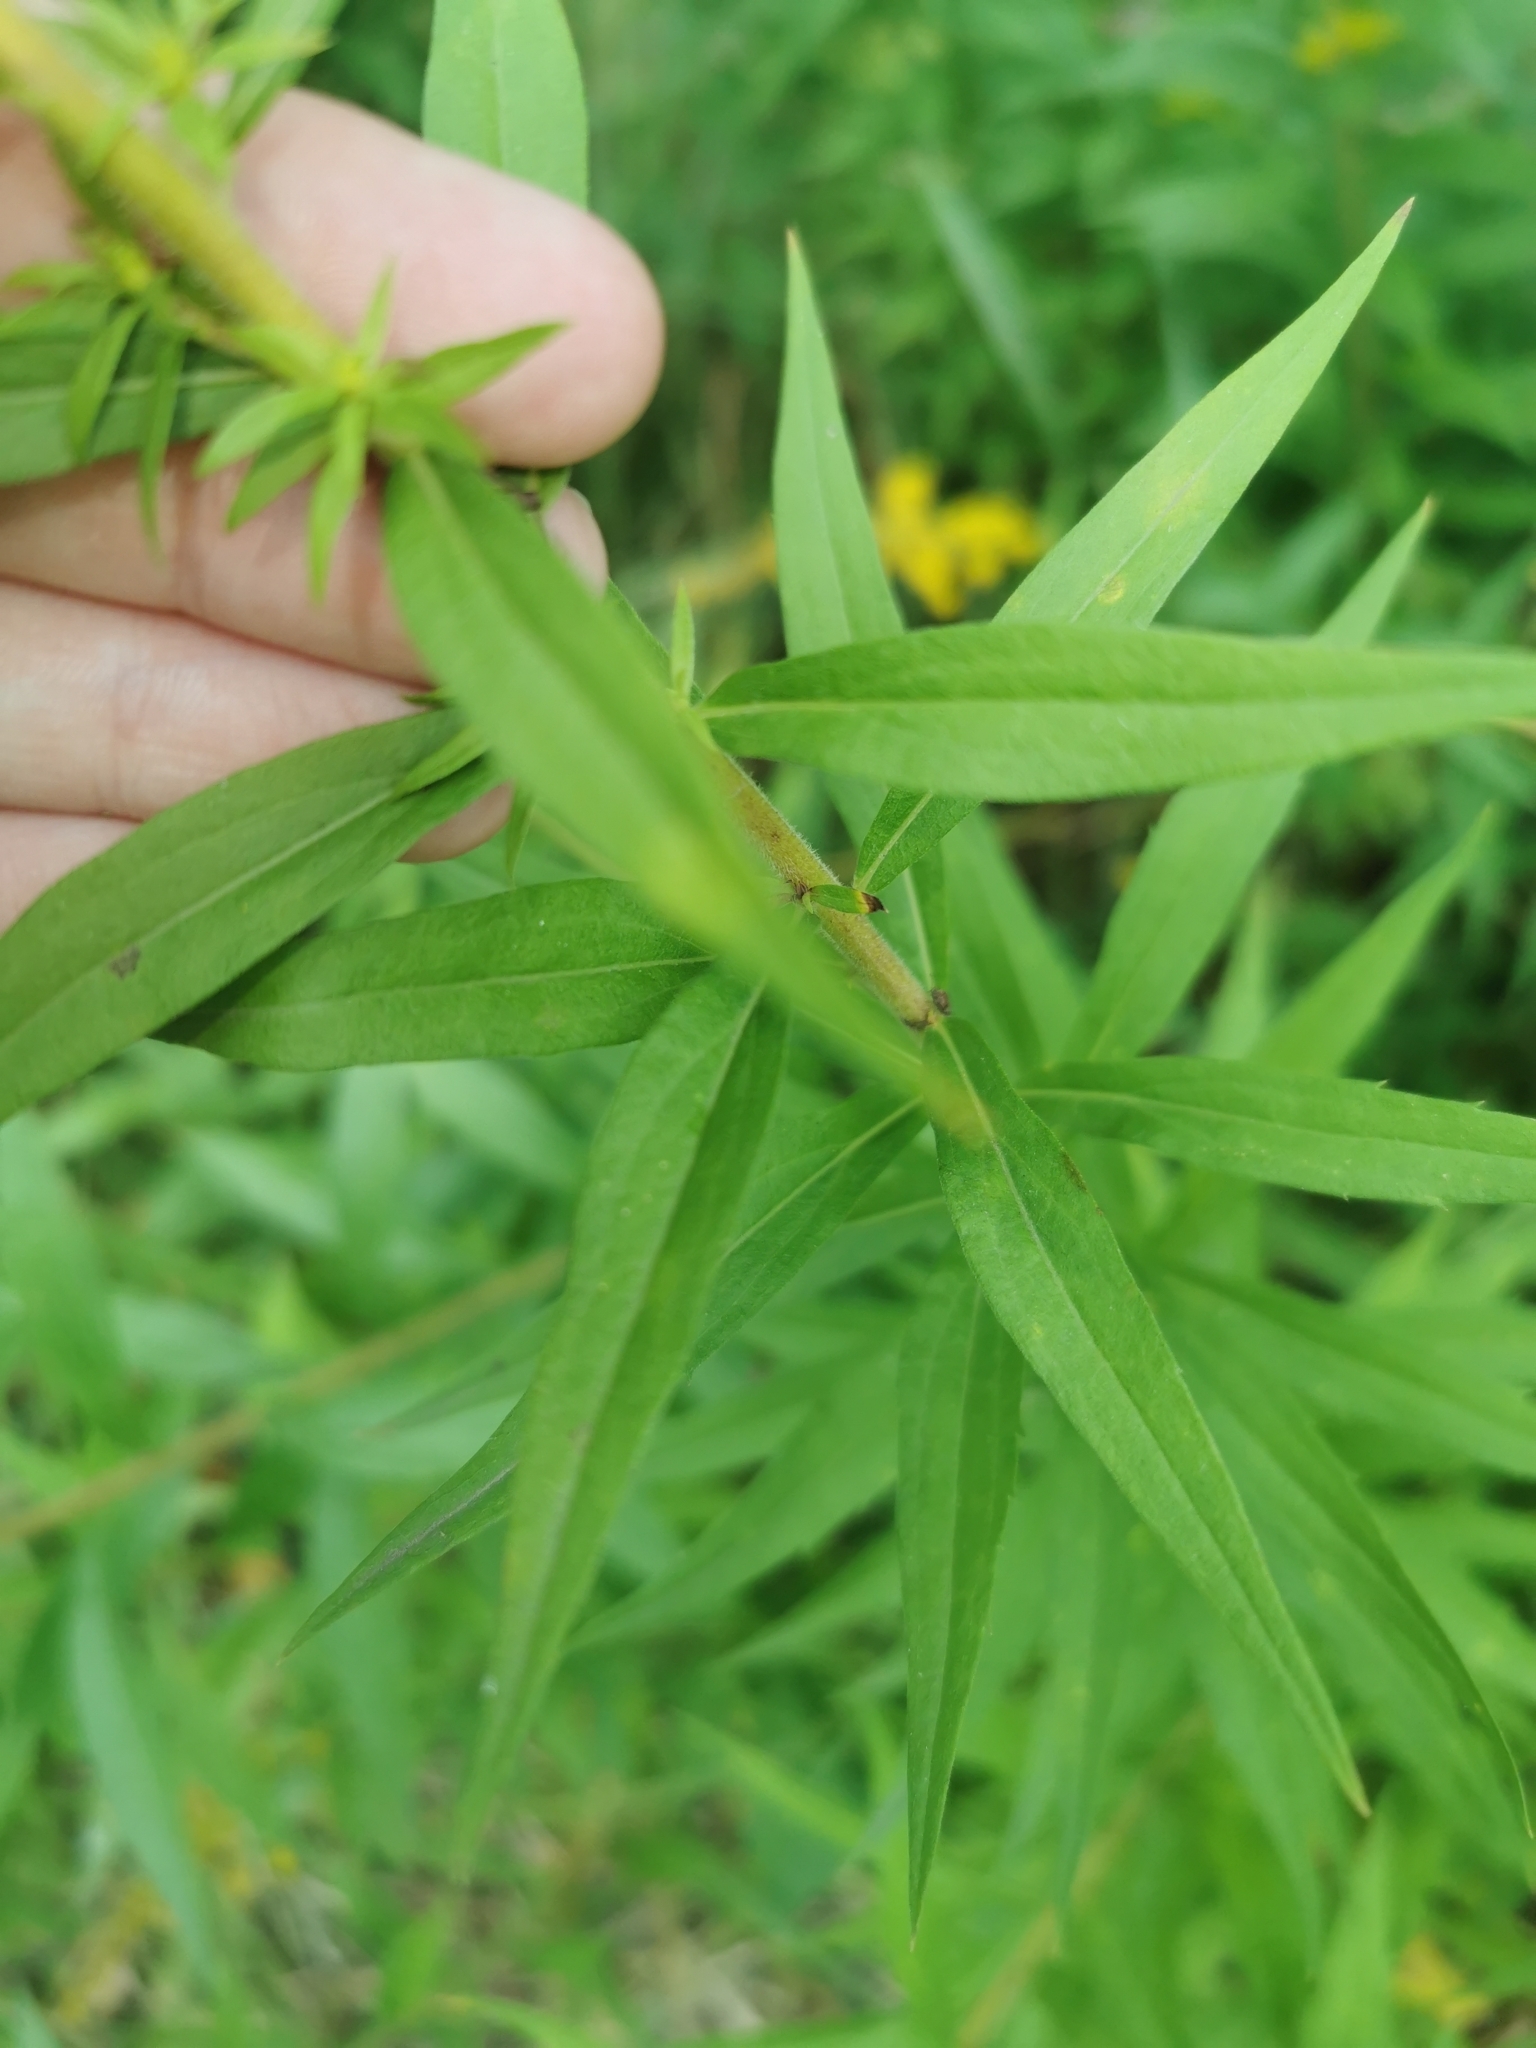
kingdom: Plantae
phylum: Tracheophyta
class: Magnoliopsida
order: Asterales
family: Asteraceae
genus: Solidago
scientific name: Solidago canadensis
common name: Canada goldenrod
